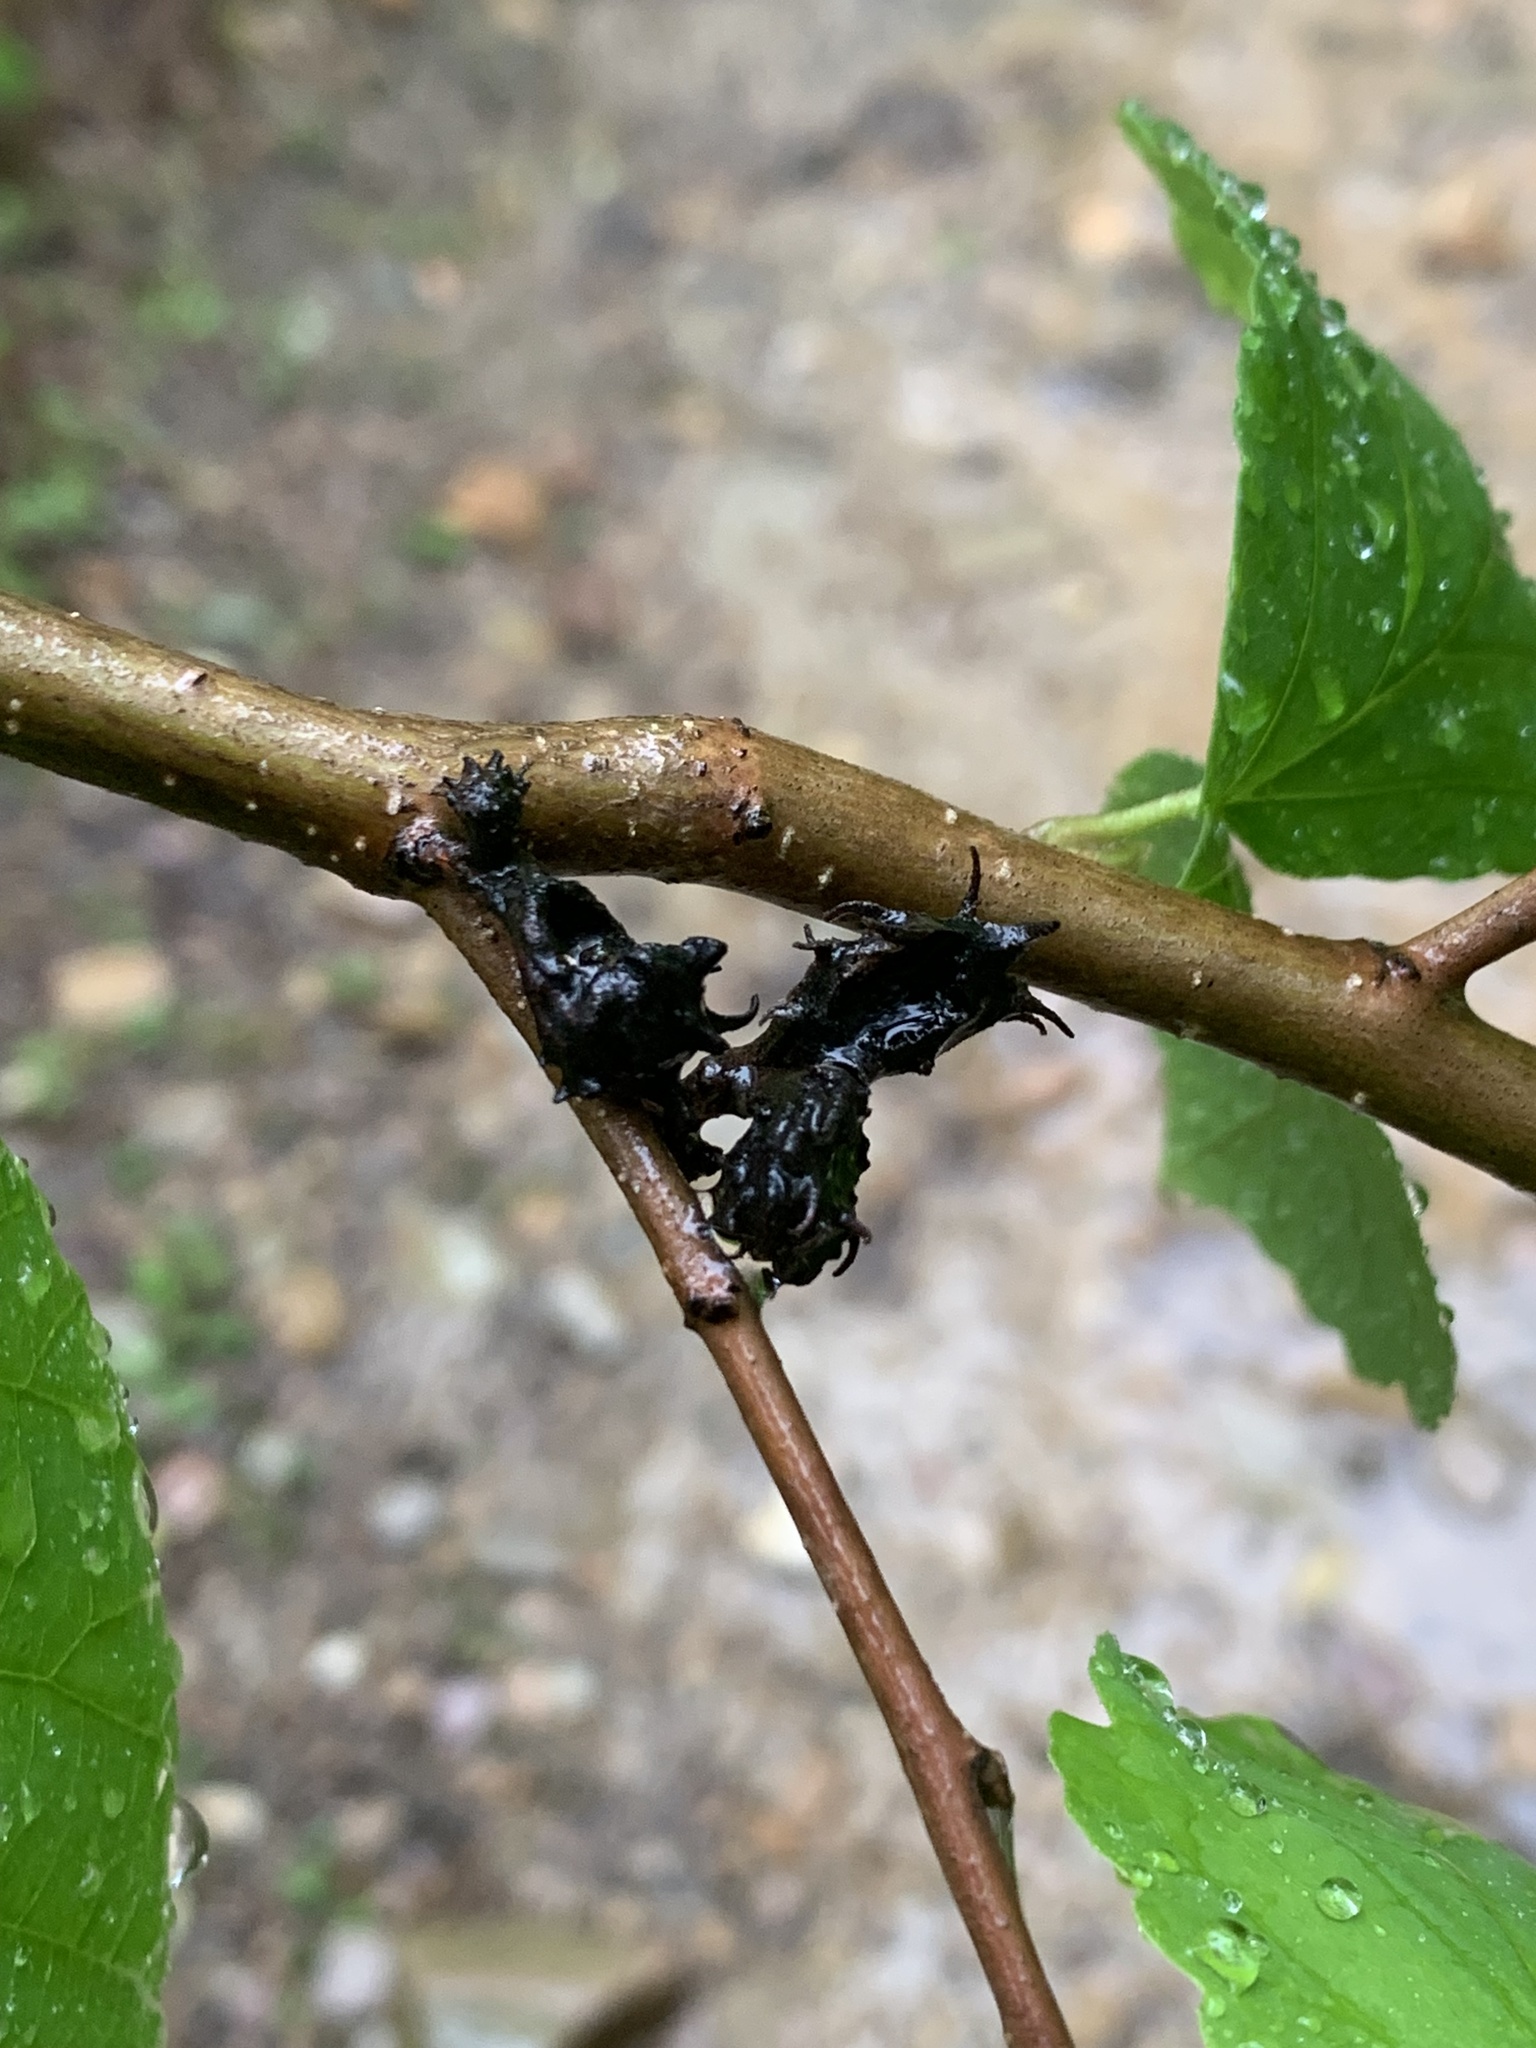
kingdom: Animalia
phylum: Arthropoda
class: Insecta
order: Hemiptera
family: Aphididae
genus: Hamamelistes
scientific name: Hamamelistes spinosus
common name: Witch hazel gall aphid
